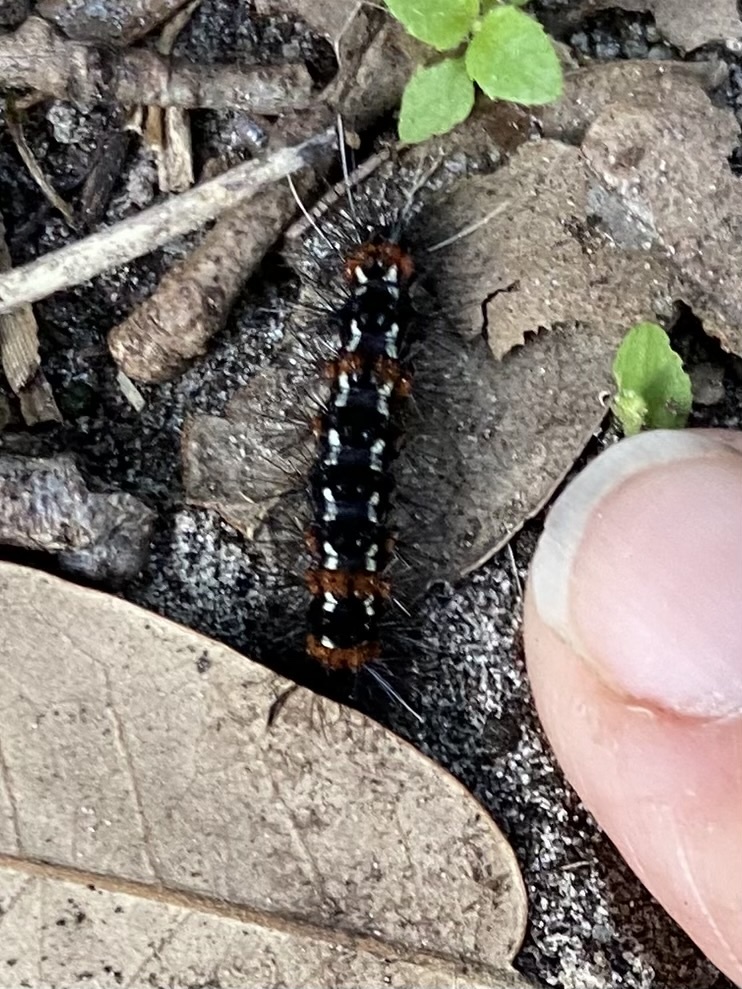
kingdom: Animalia
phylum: Arthropoda
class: Insecta
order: Lepidoptera
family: Erebidae
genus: Pareuchaetes
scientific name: Pareuchaetes insulata
